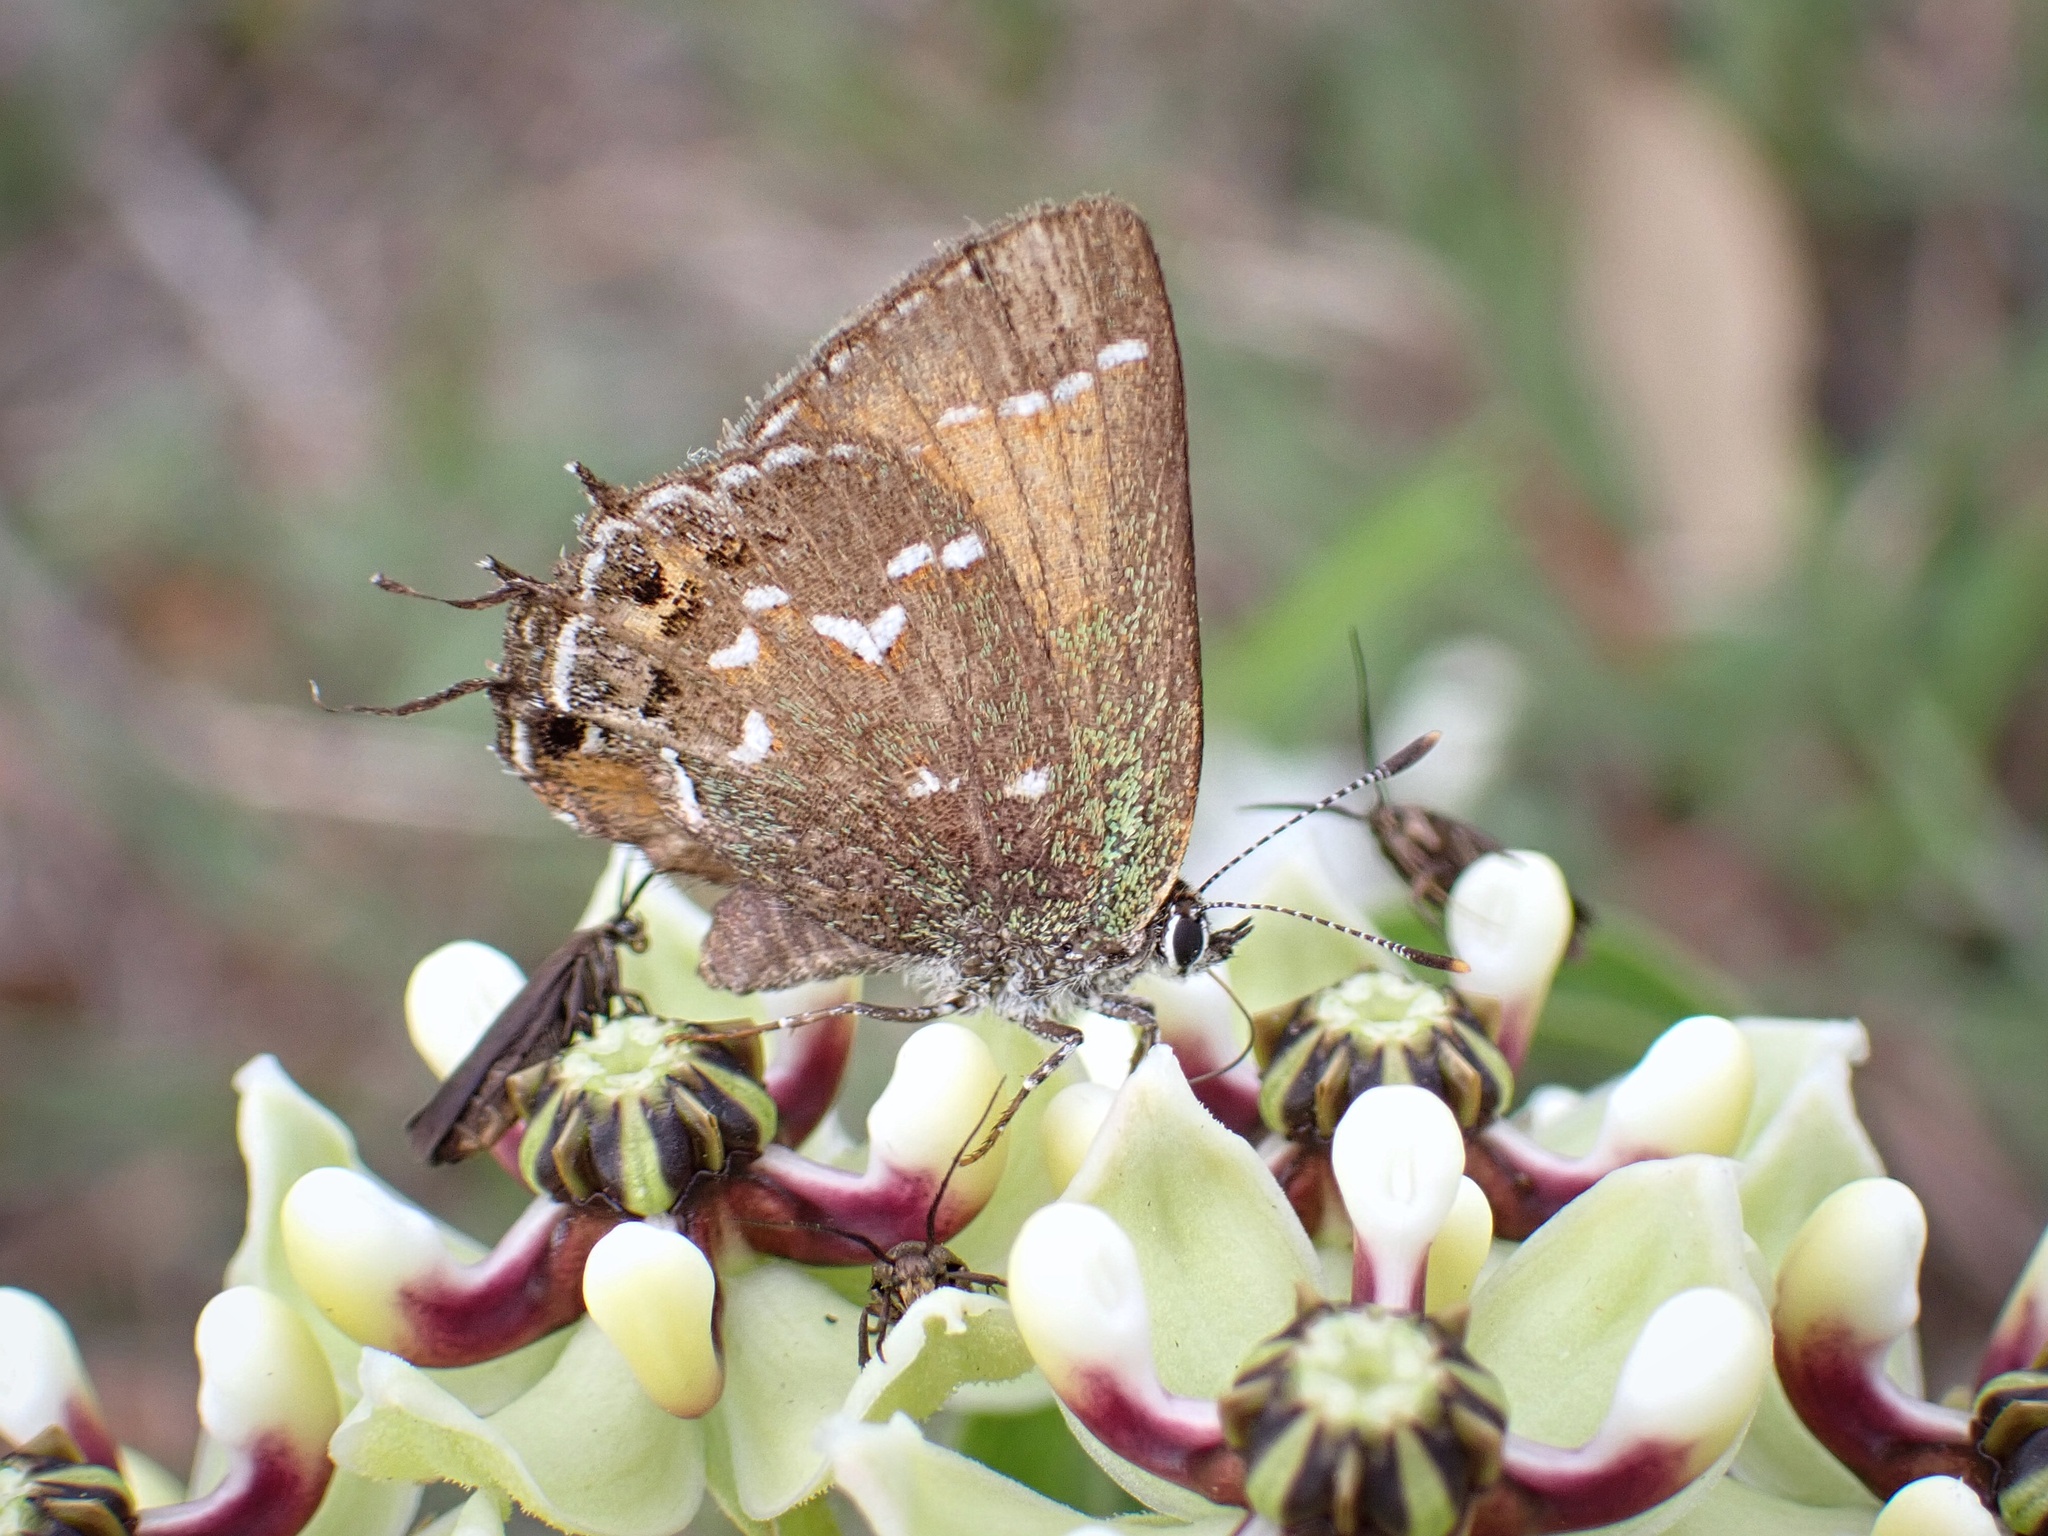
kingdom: Animalia
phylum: Arthropoda
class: Insecta
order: Lepidoptera
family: Lycaenidae
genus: Mitoura
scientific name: Mitoura gryneus
